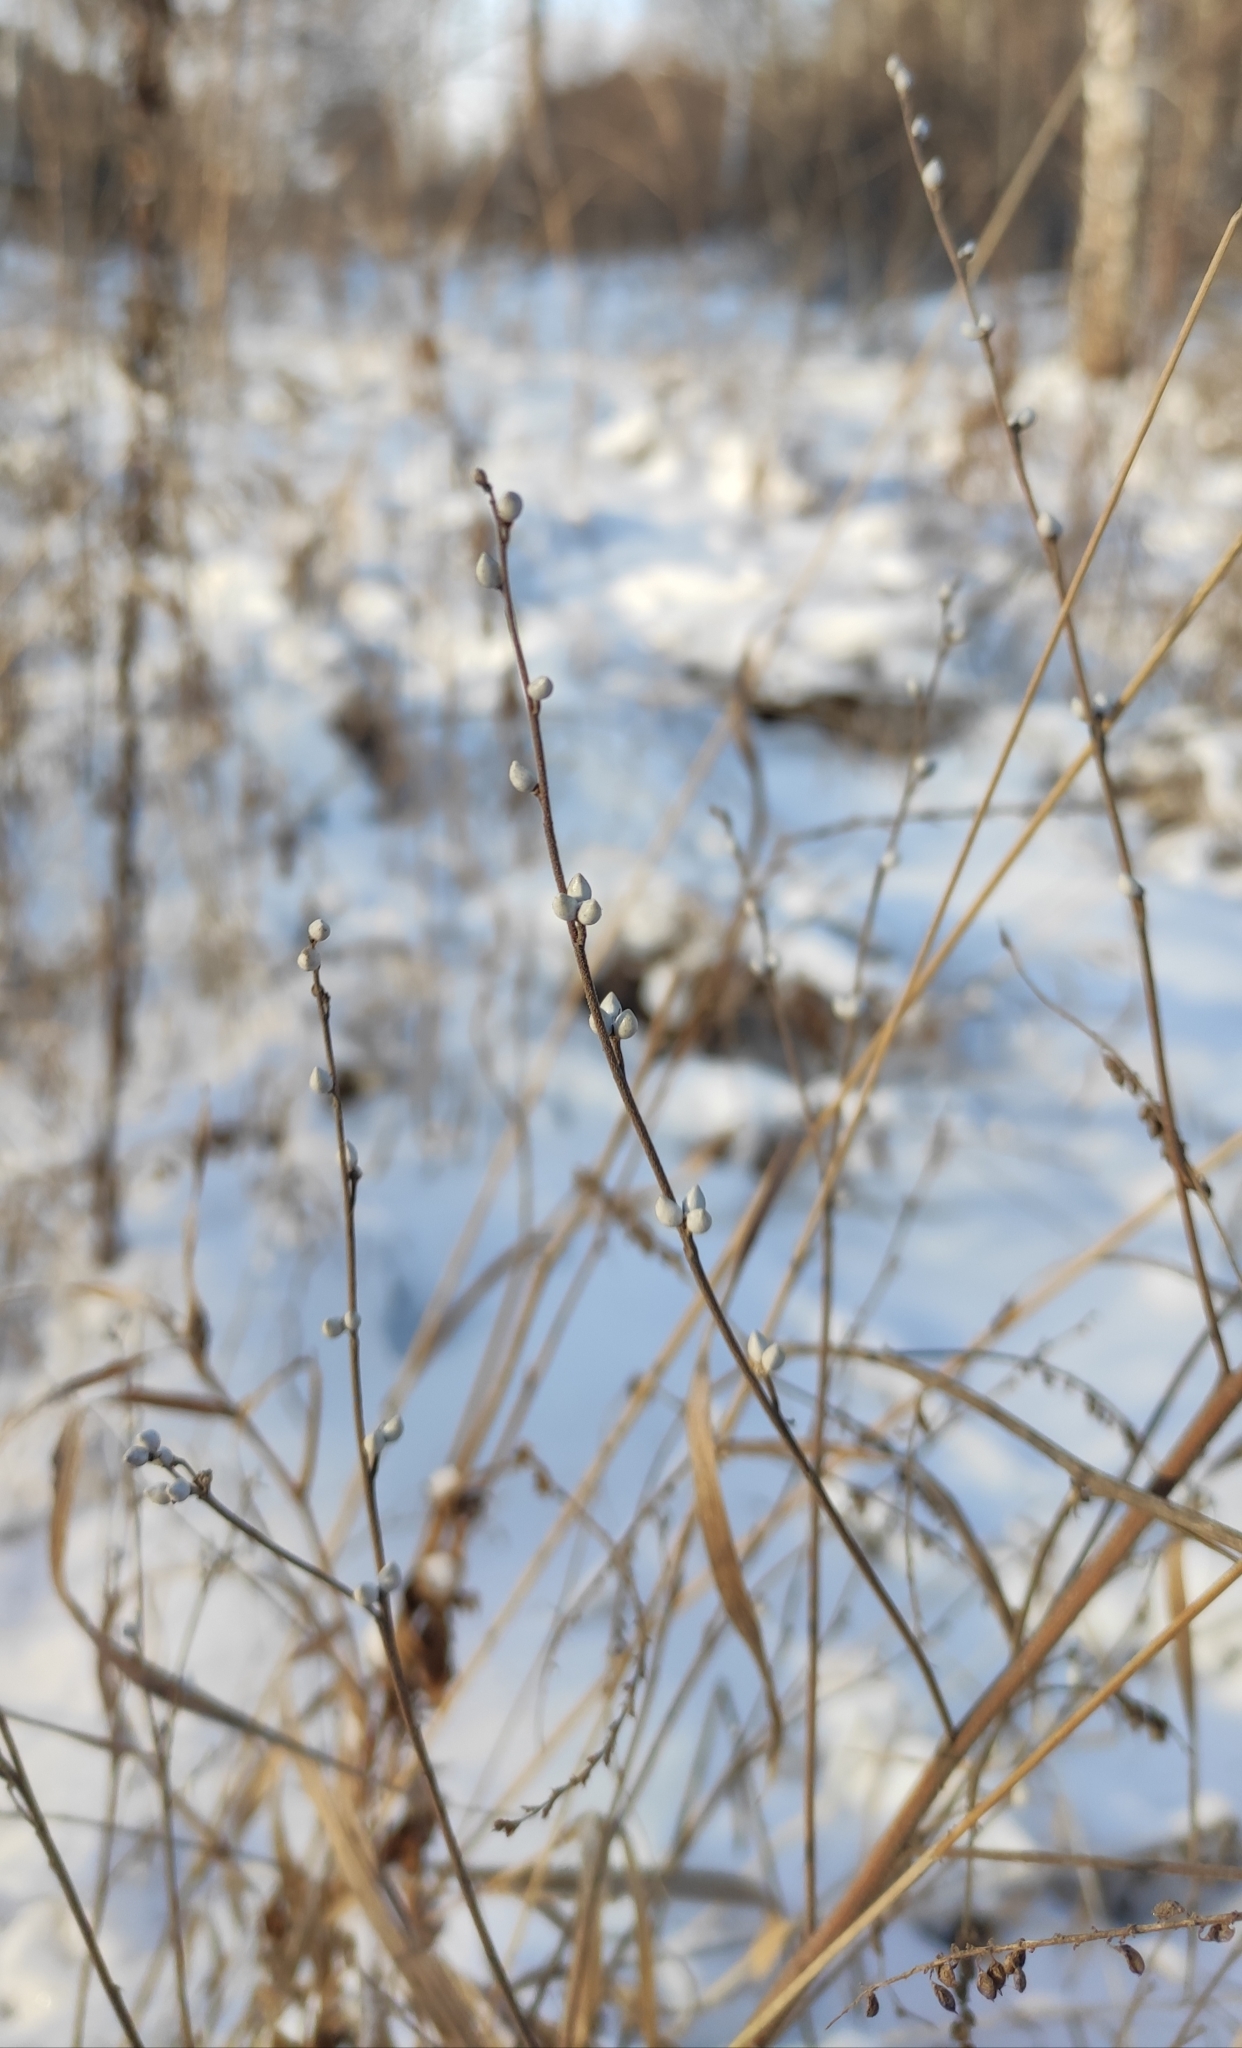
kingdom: Plantae
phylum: Tracheophyta
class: Magnoliopsida
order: Boraginales
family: Boraginaceae
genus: Lithospermum
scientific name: Lithospermum officinale
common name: Common gromwell
